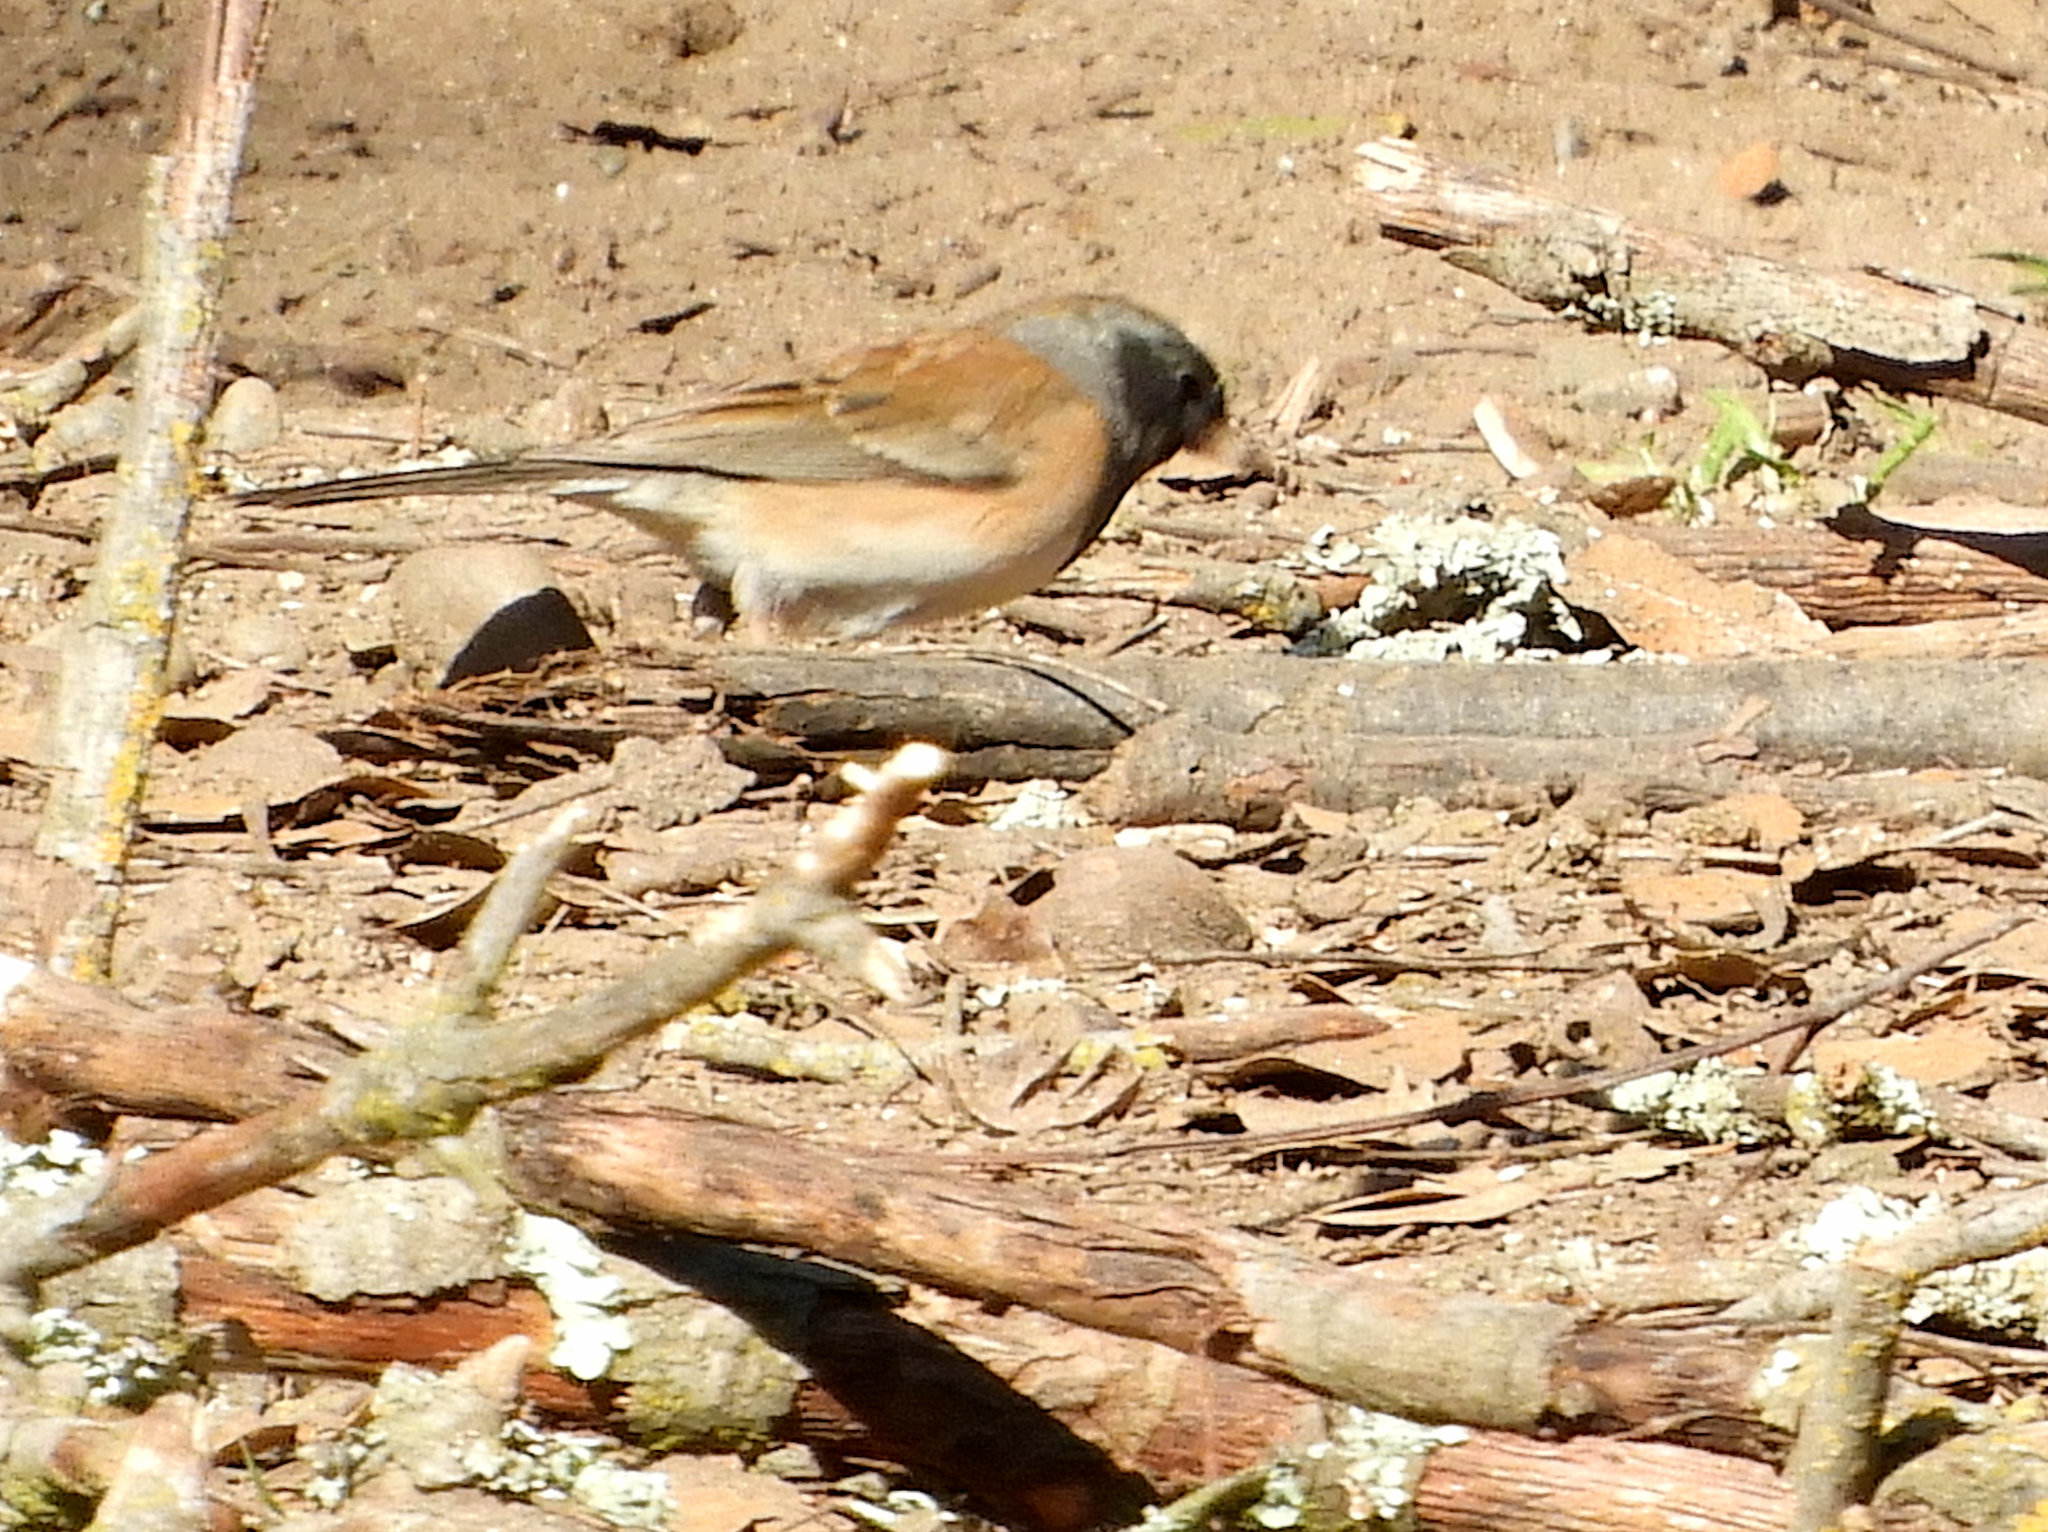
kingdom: Animalia
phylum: Chordata
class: Aves
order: Passeriformes
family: Passerellidae
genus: Junco
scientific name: Junco hyemalis
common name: Dark-eyed junco
